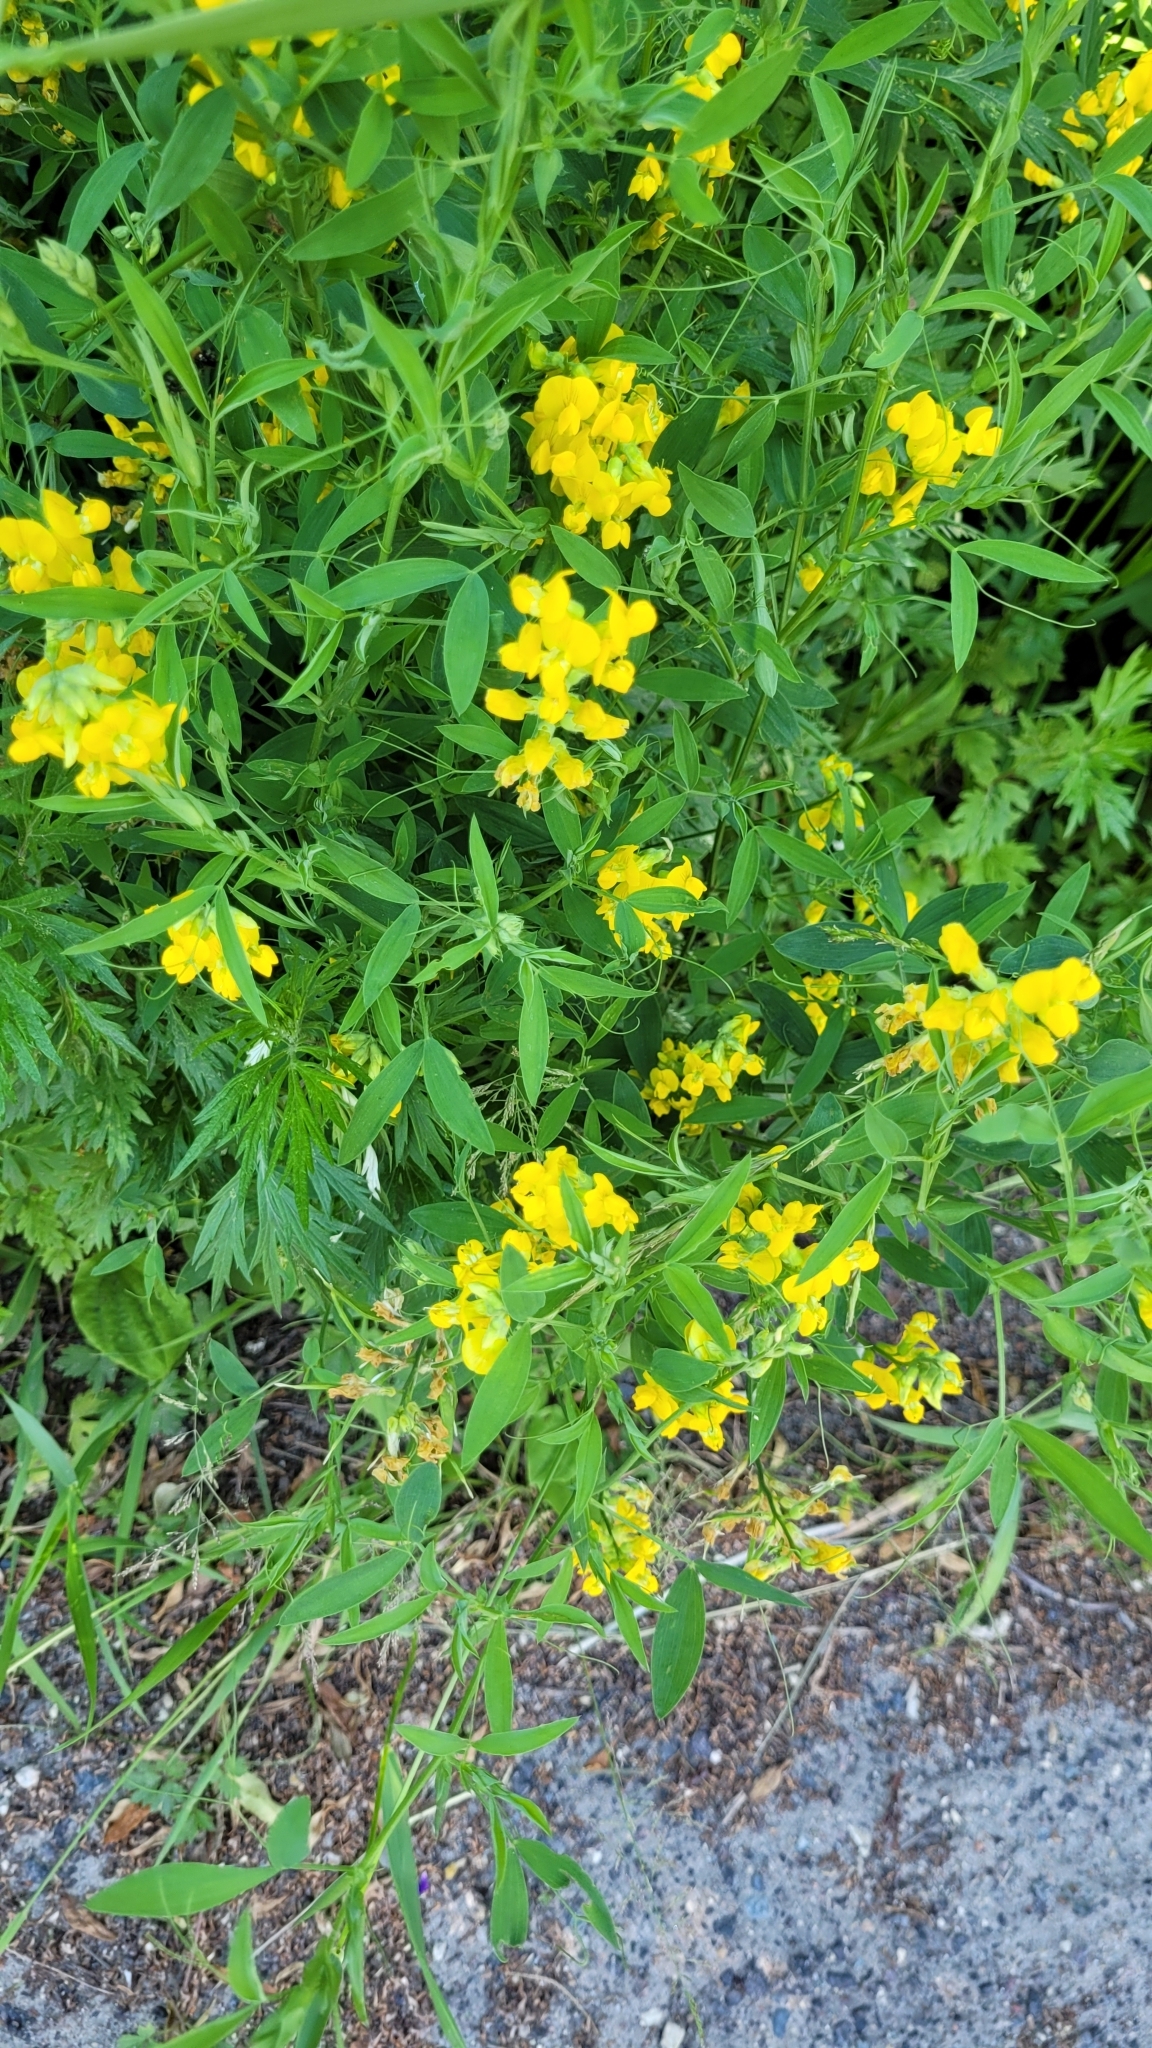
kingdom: Plantae
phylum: Tracheophyta
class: Magnoliopsida
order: Fabales
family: Fabaceae
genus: Lathyrus
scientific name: Lathyrus pratensis
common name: Meadow vetchling
